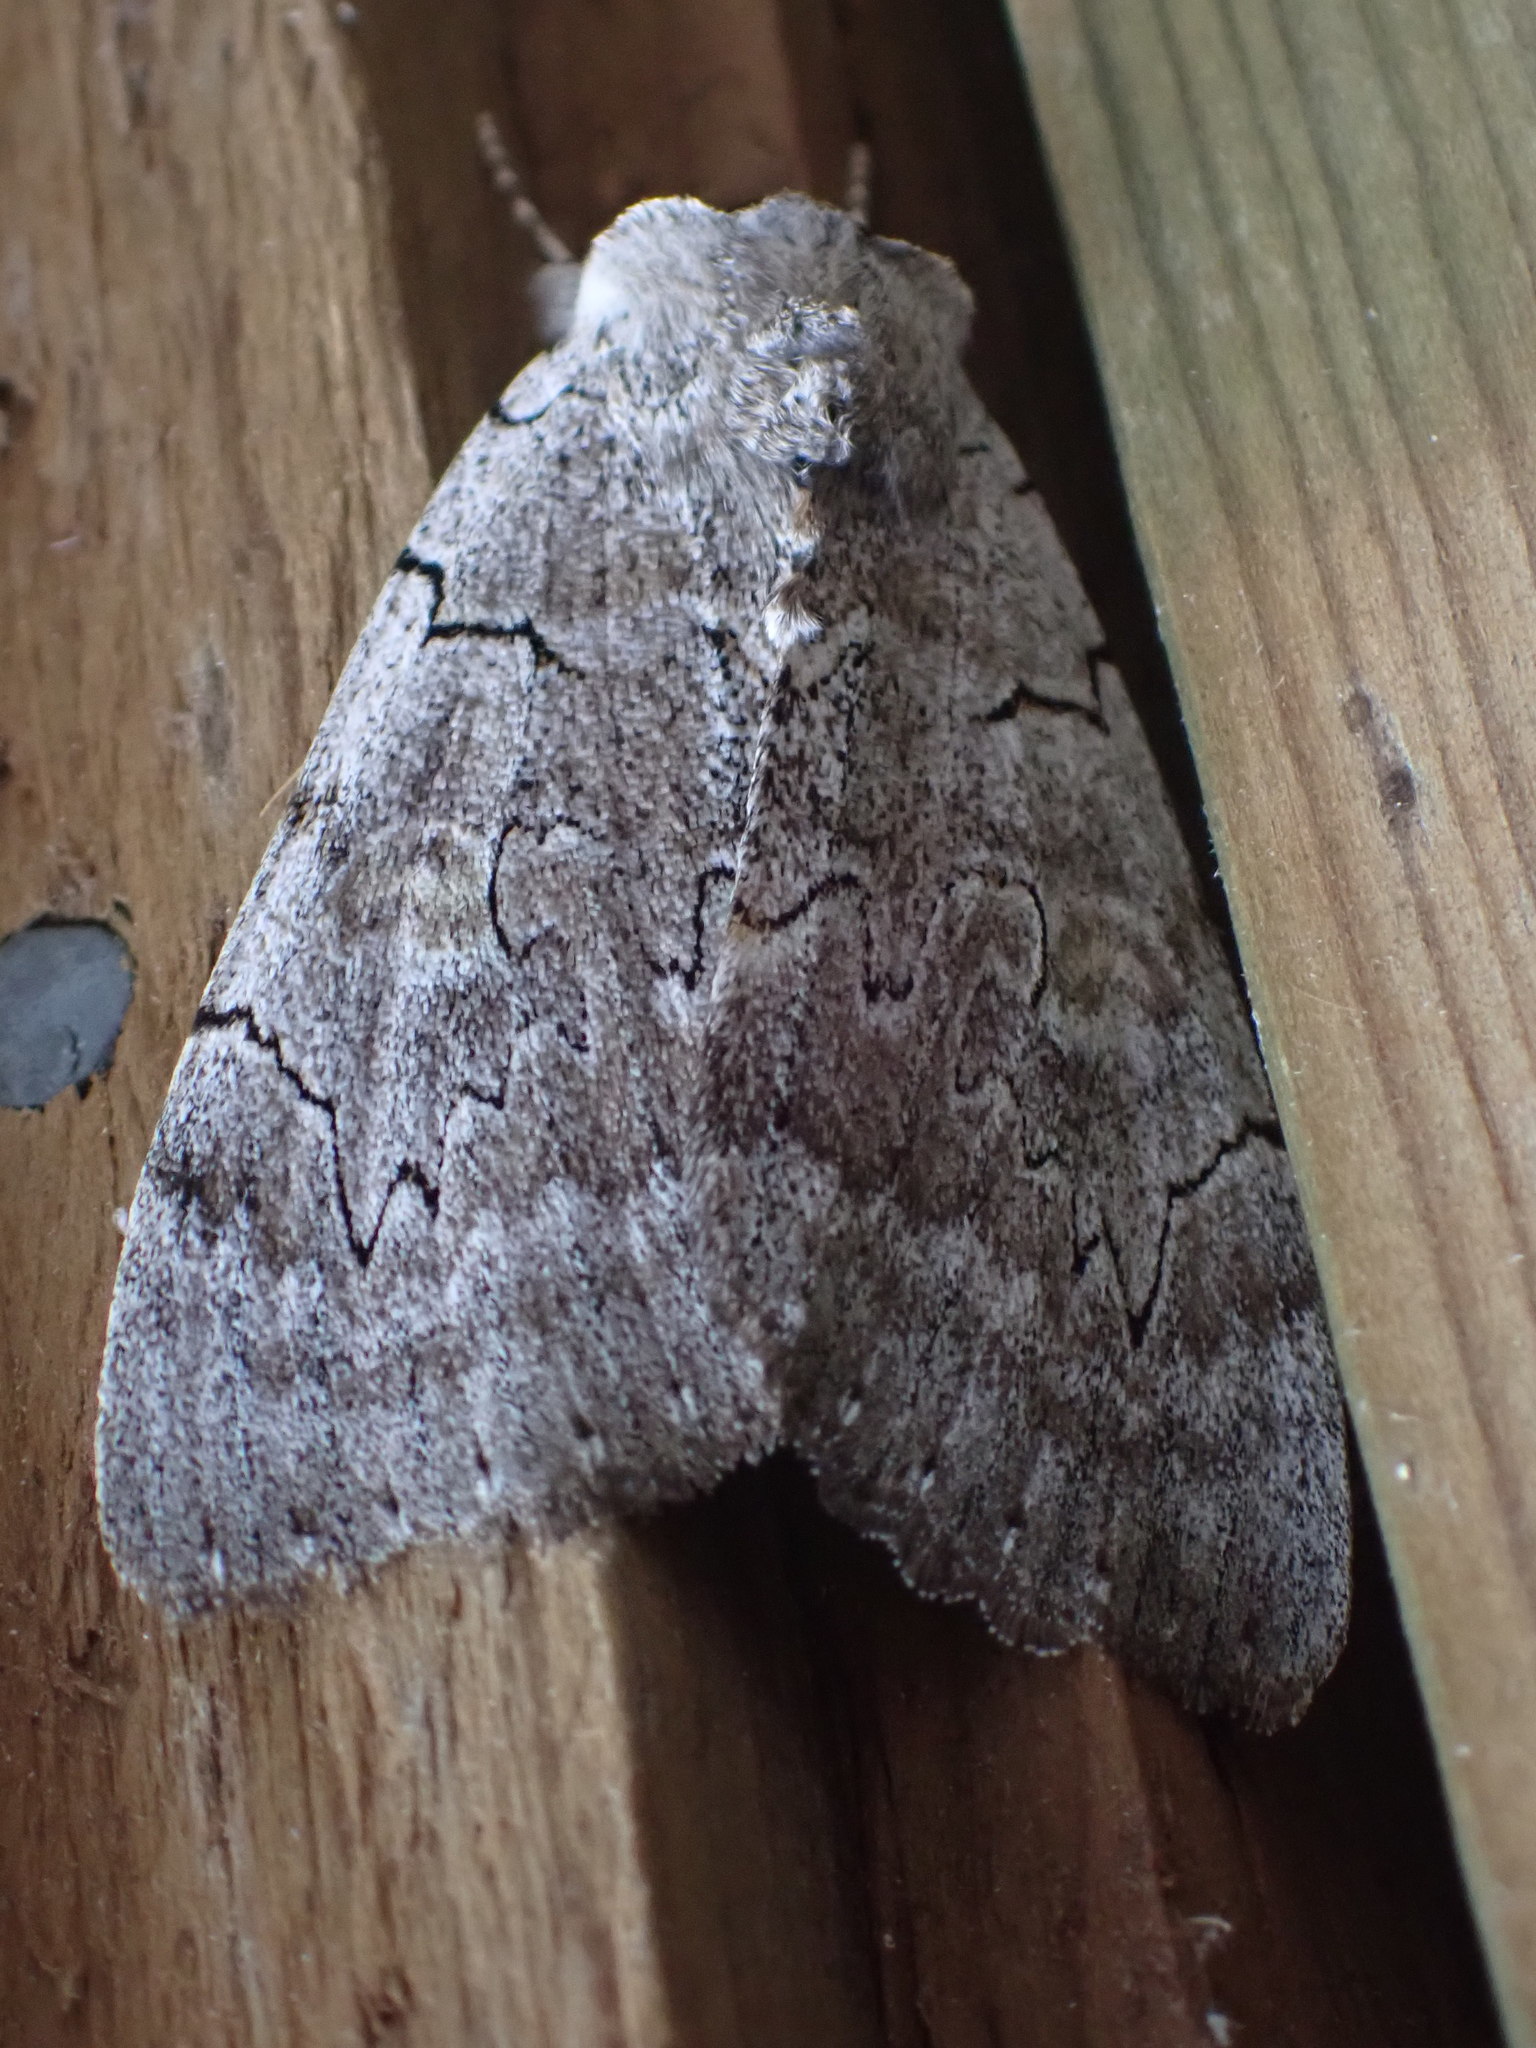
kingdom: Animalia
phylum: Arthropoda
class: Insecta
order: Lepidoptera
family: Erebidae
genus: Catocala
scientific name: Catocala concumbens
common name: Pink underwing
